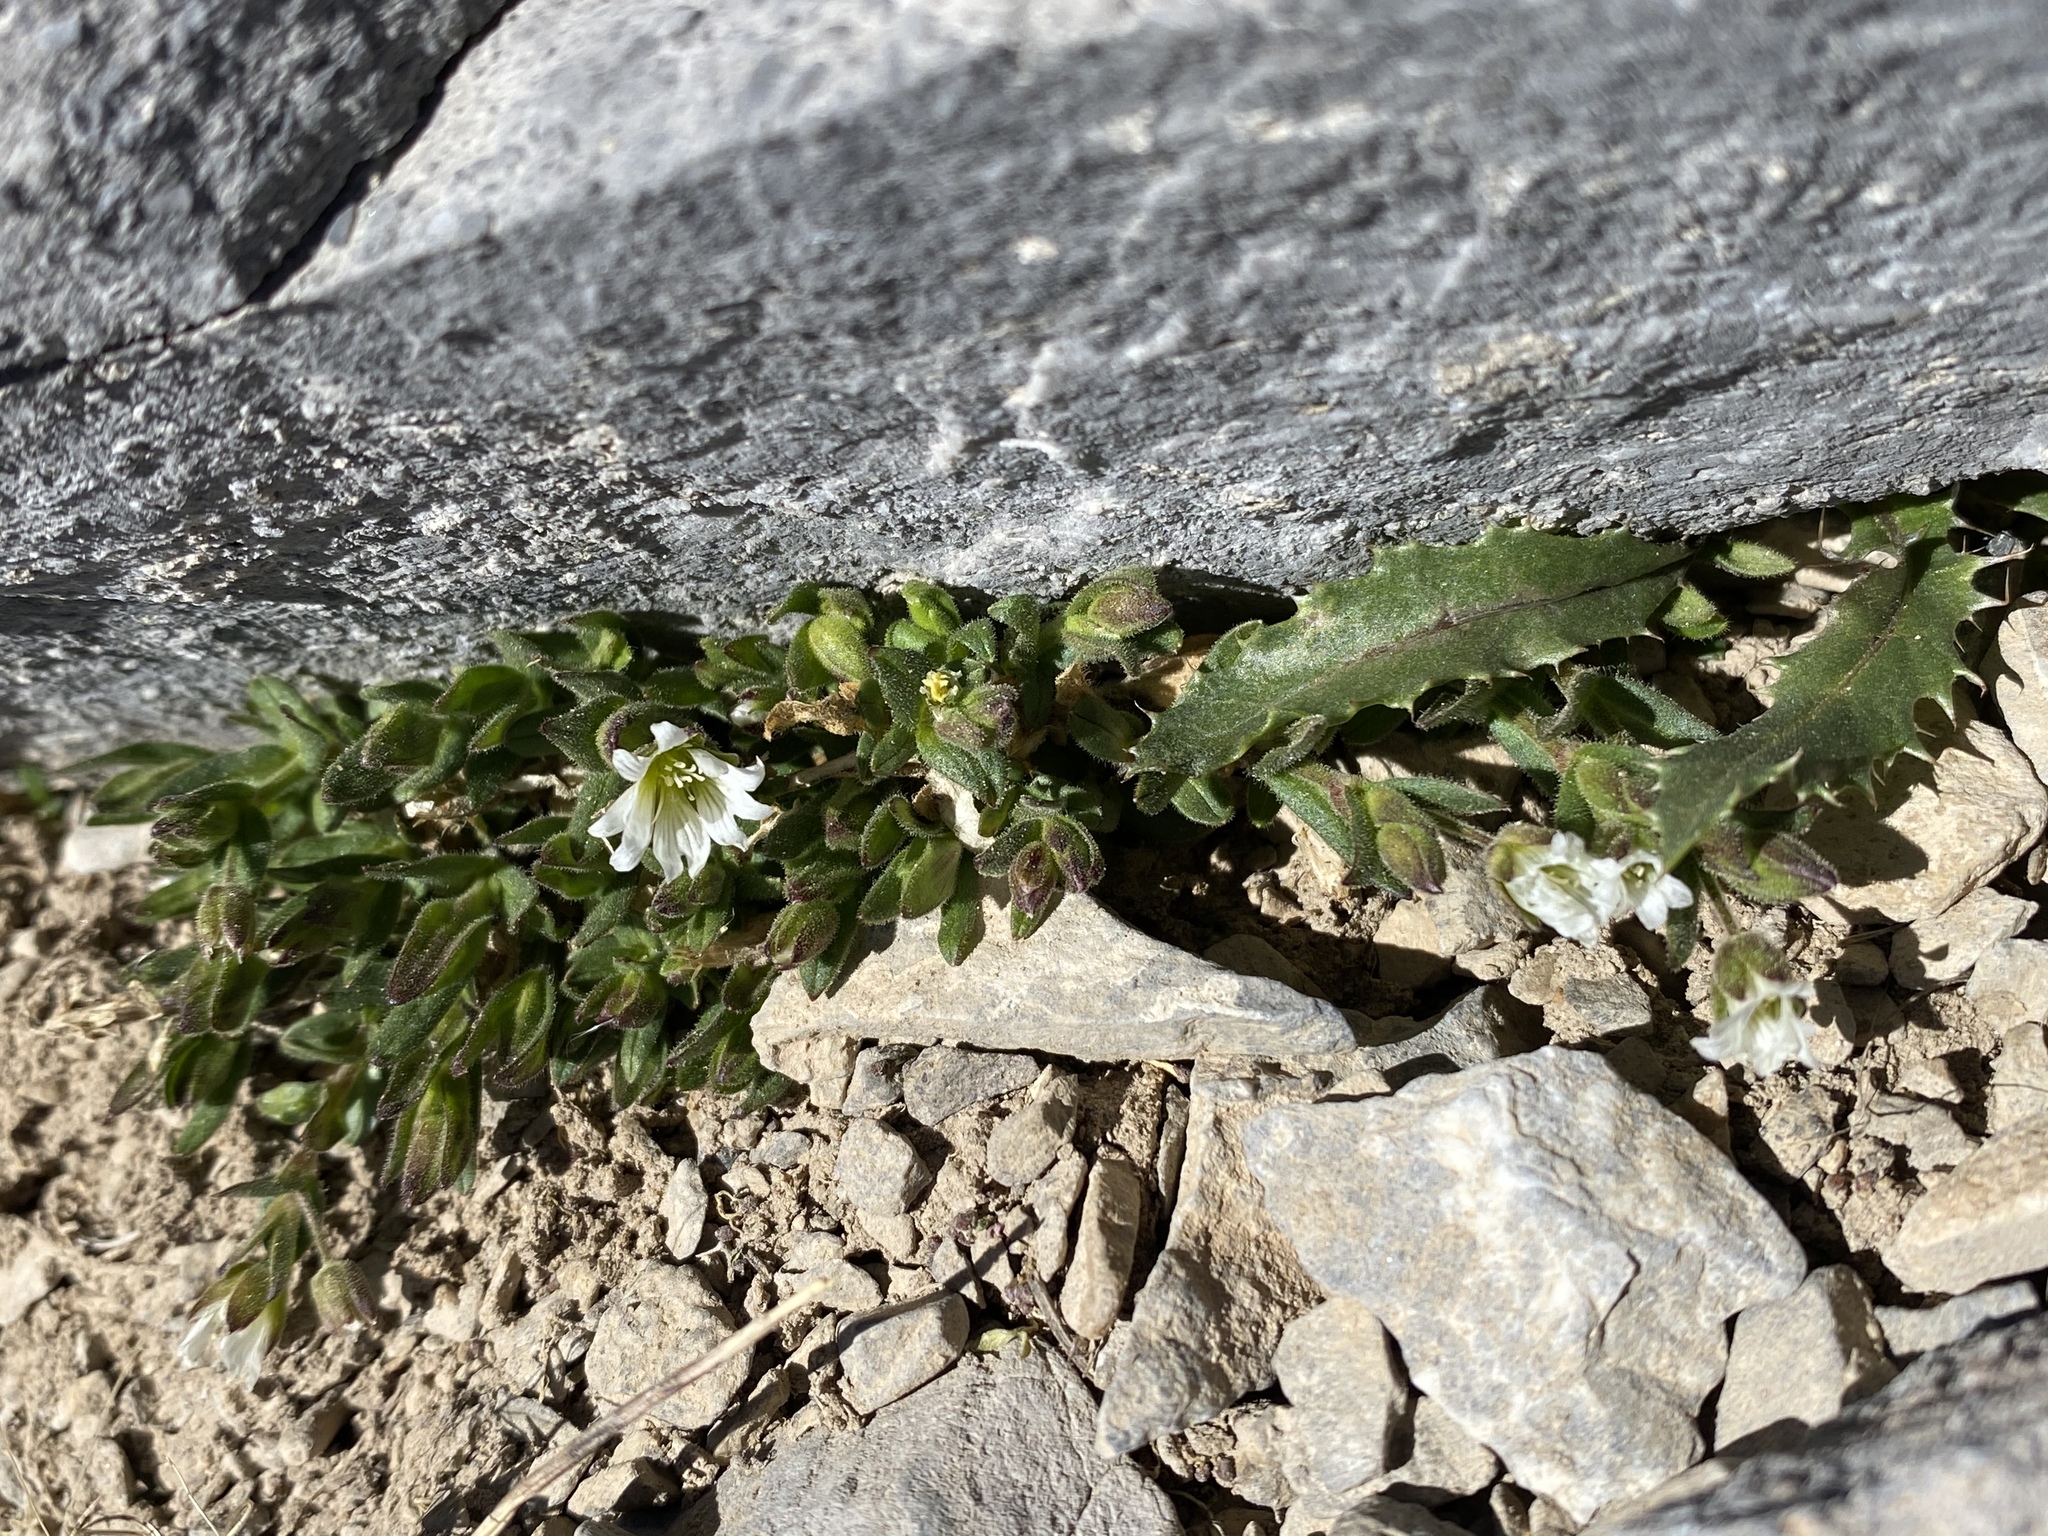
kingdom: Plantae
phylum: Tracheophyta
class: Magnoliopsida
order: Caryophyllales
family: Caryophyllaceae
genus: Cerastium
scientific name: Cerastium beeringianum
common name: Bering mouse-ear chickweed
